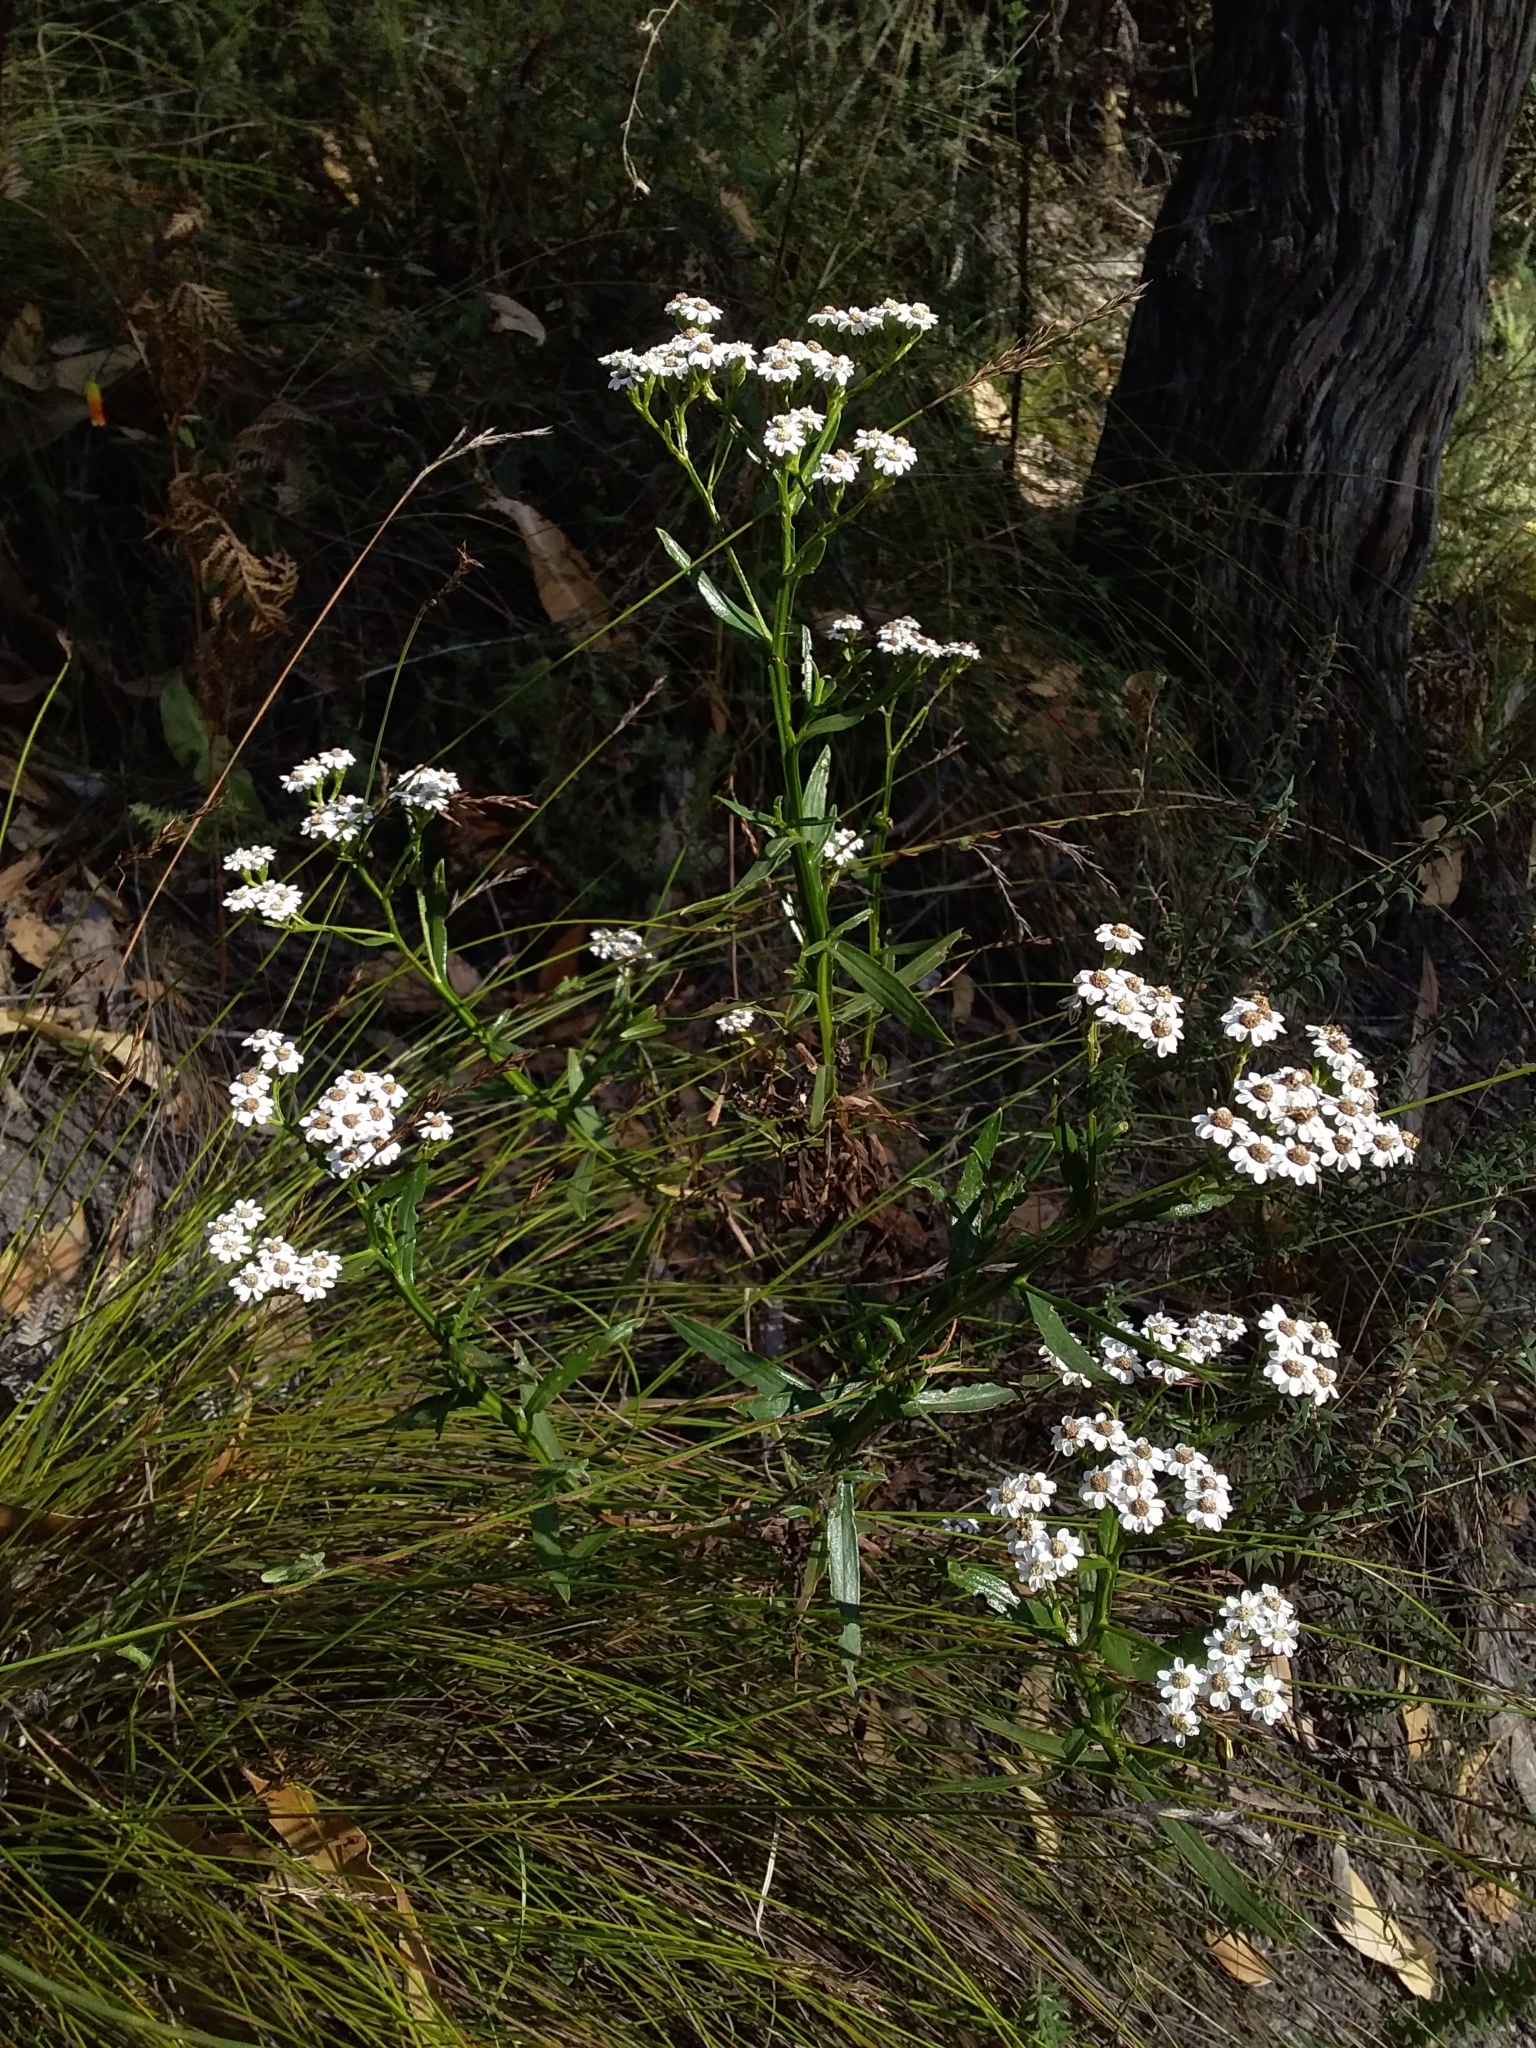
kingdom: Plantae
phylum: Tracheophyta
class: Magnoliopsida
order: Asterales
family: Asteraceae
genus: Ixodia
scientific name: Ixodia achillaeoides
